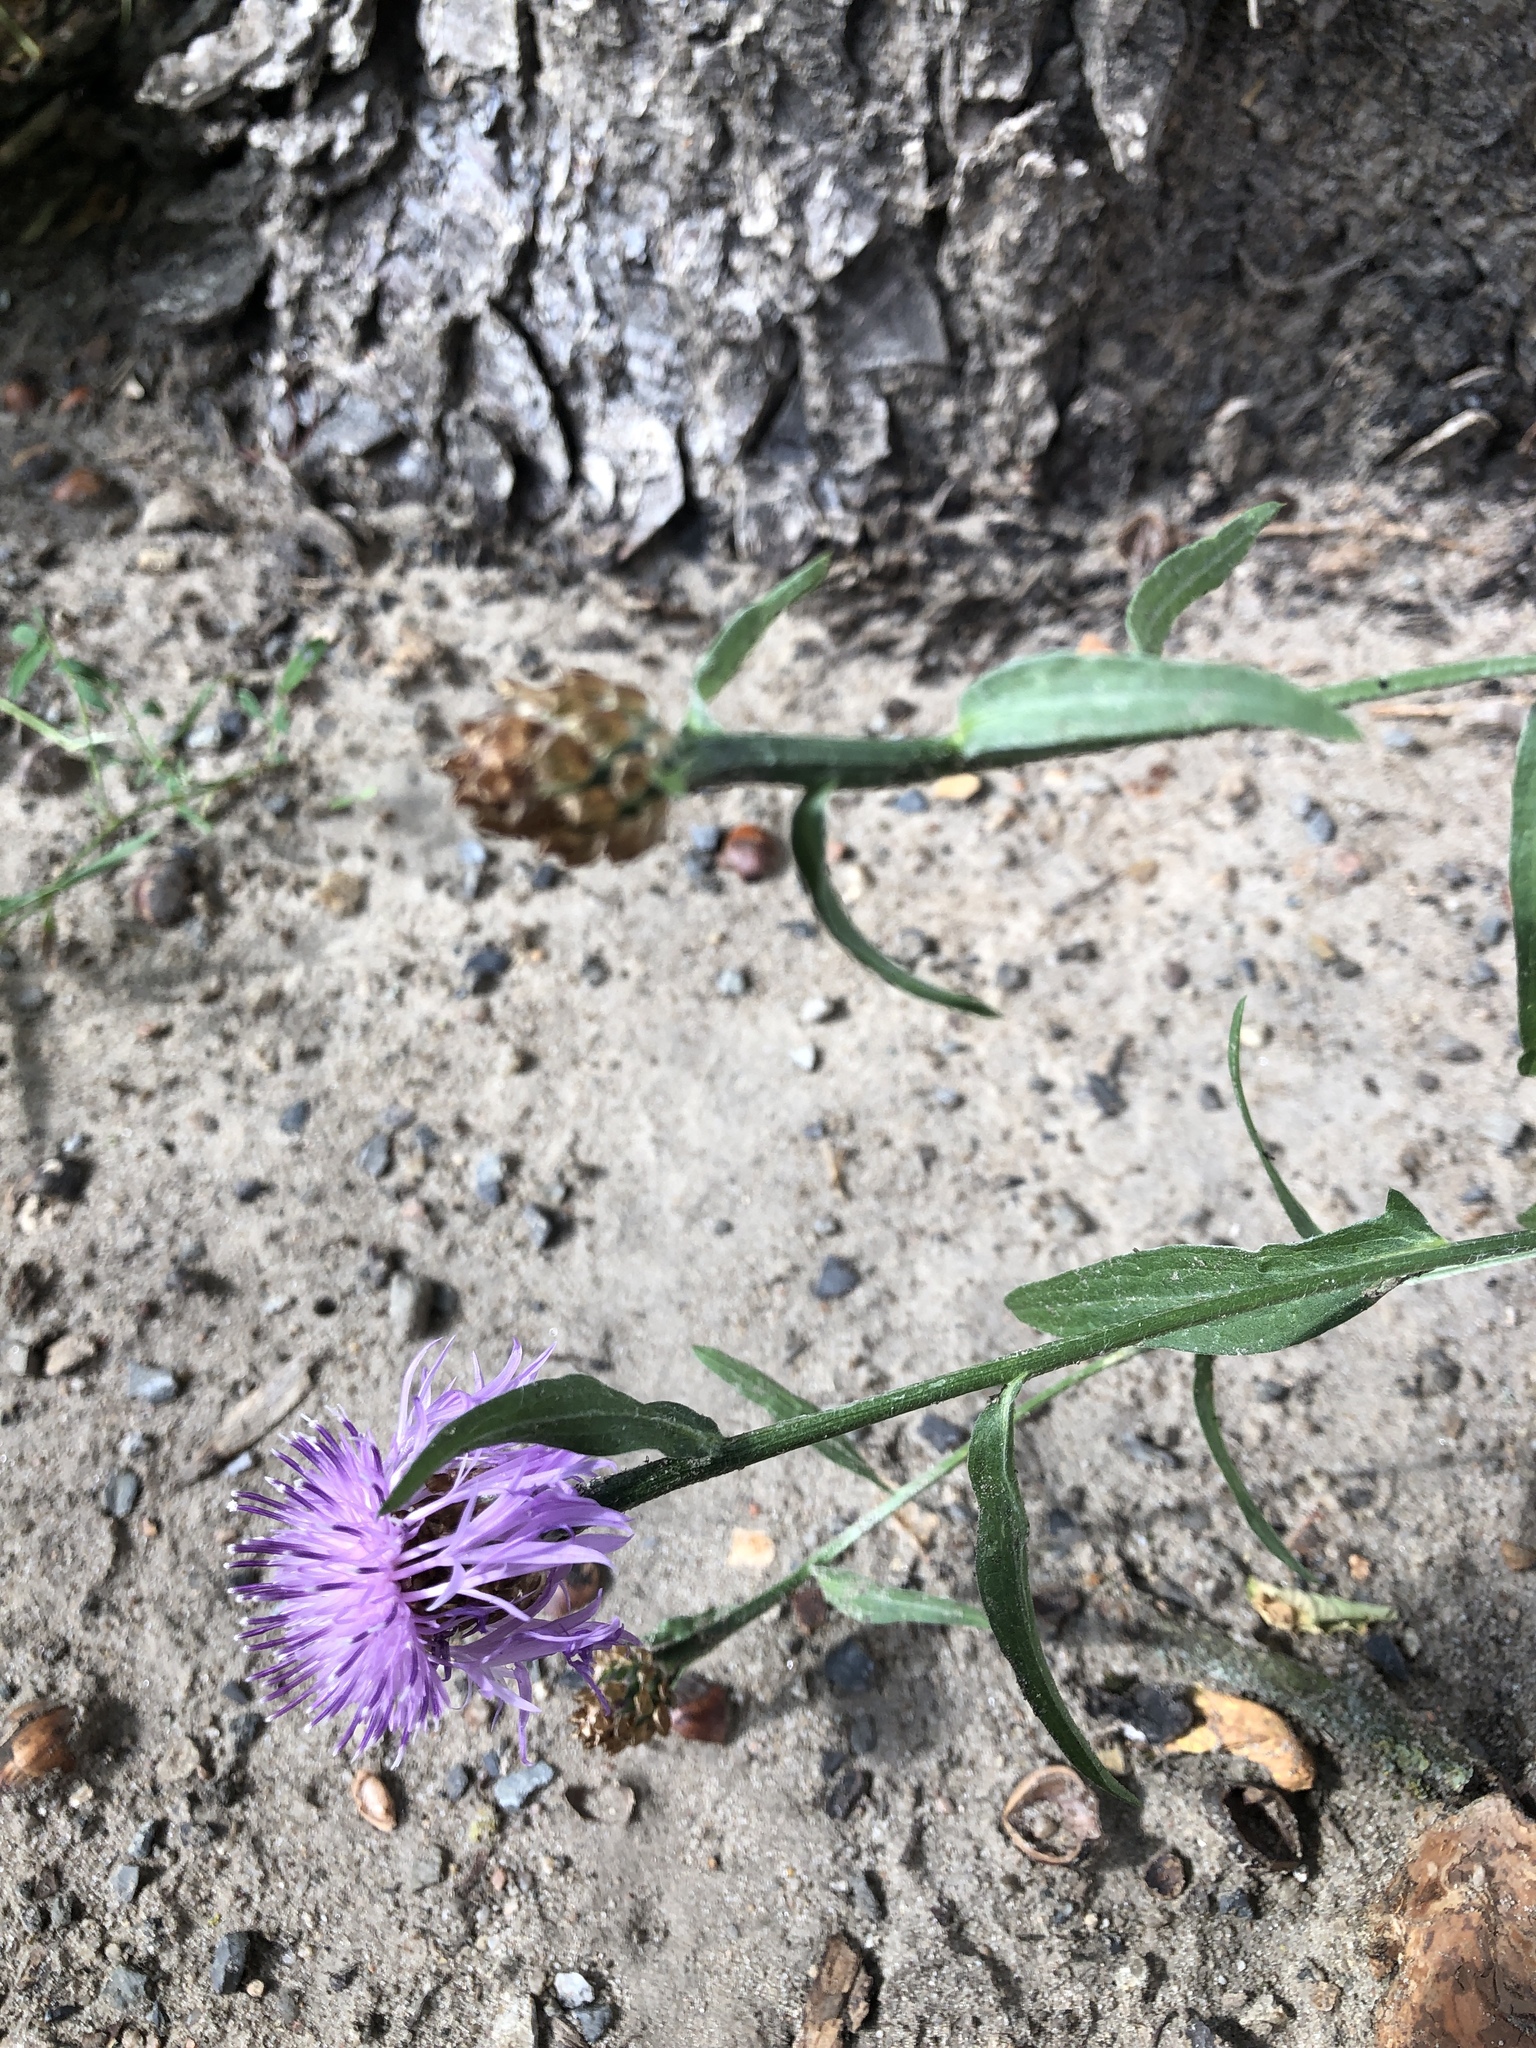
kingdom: Plantae
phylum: Tracheophyta
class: Magnoliopsida
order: Asterales
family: Asteraceae
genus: Centaurea
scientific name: Centaurea jacea
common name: Brown knapweed
